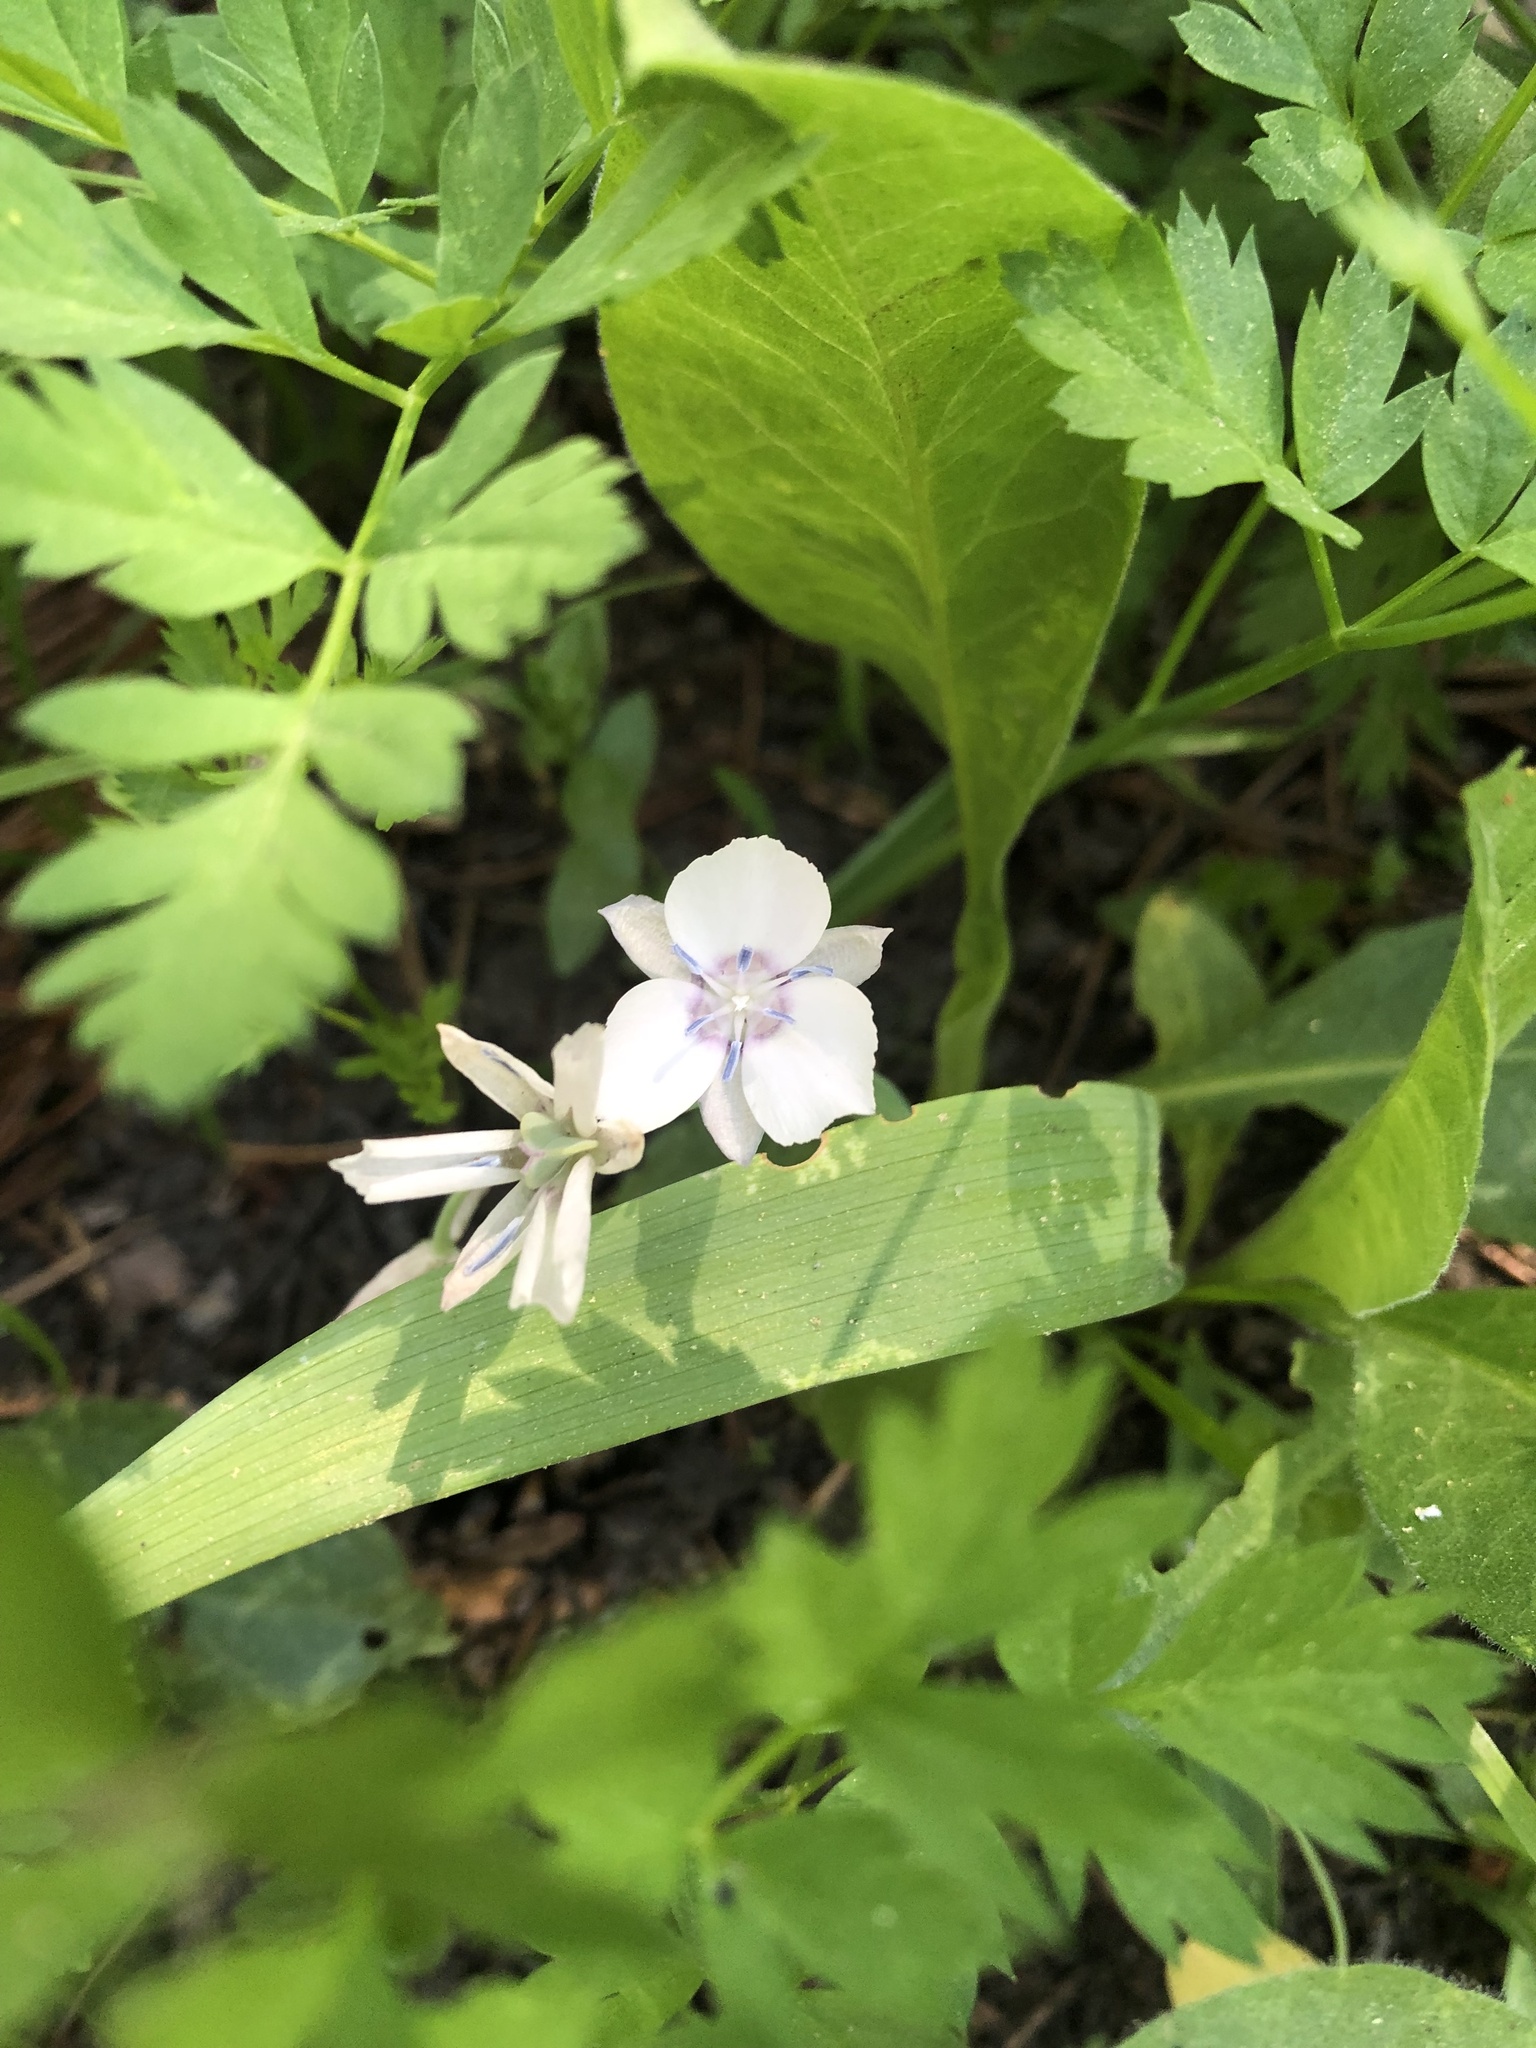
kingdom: Plantae
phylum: Tracheophyta
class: Liliopsida
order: Liliales
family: Liliaceae
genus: Calochortus
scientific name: Calochortus minimus
